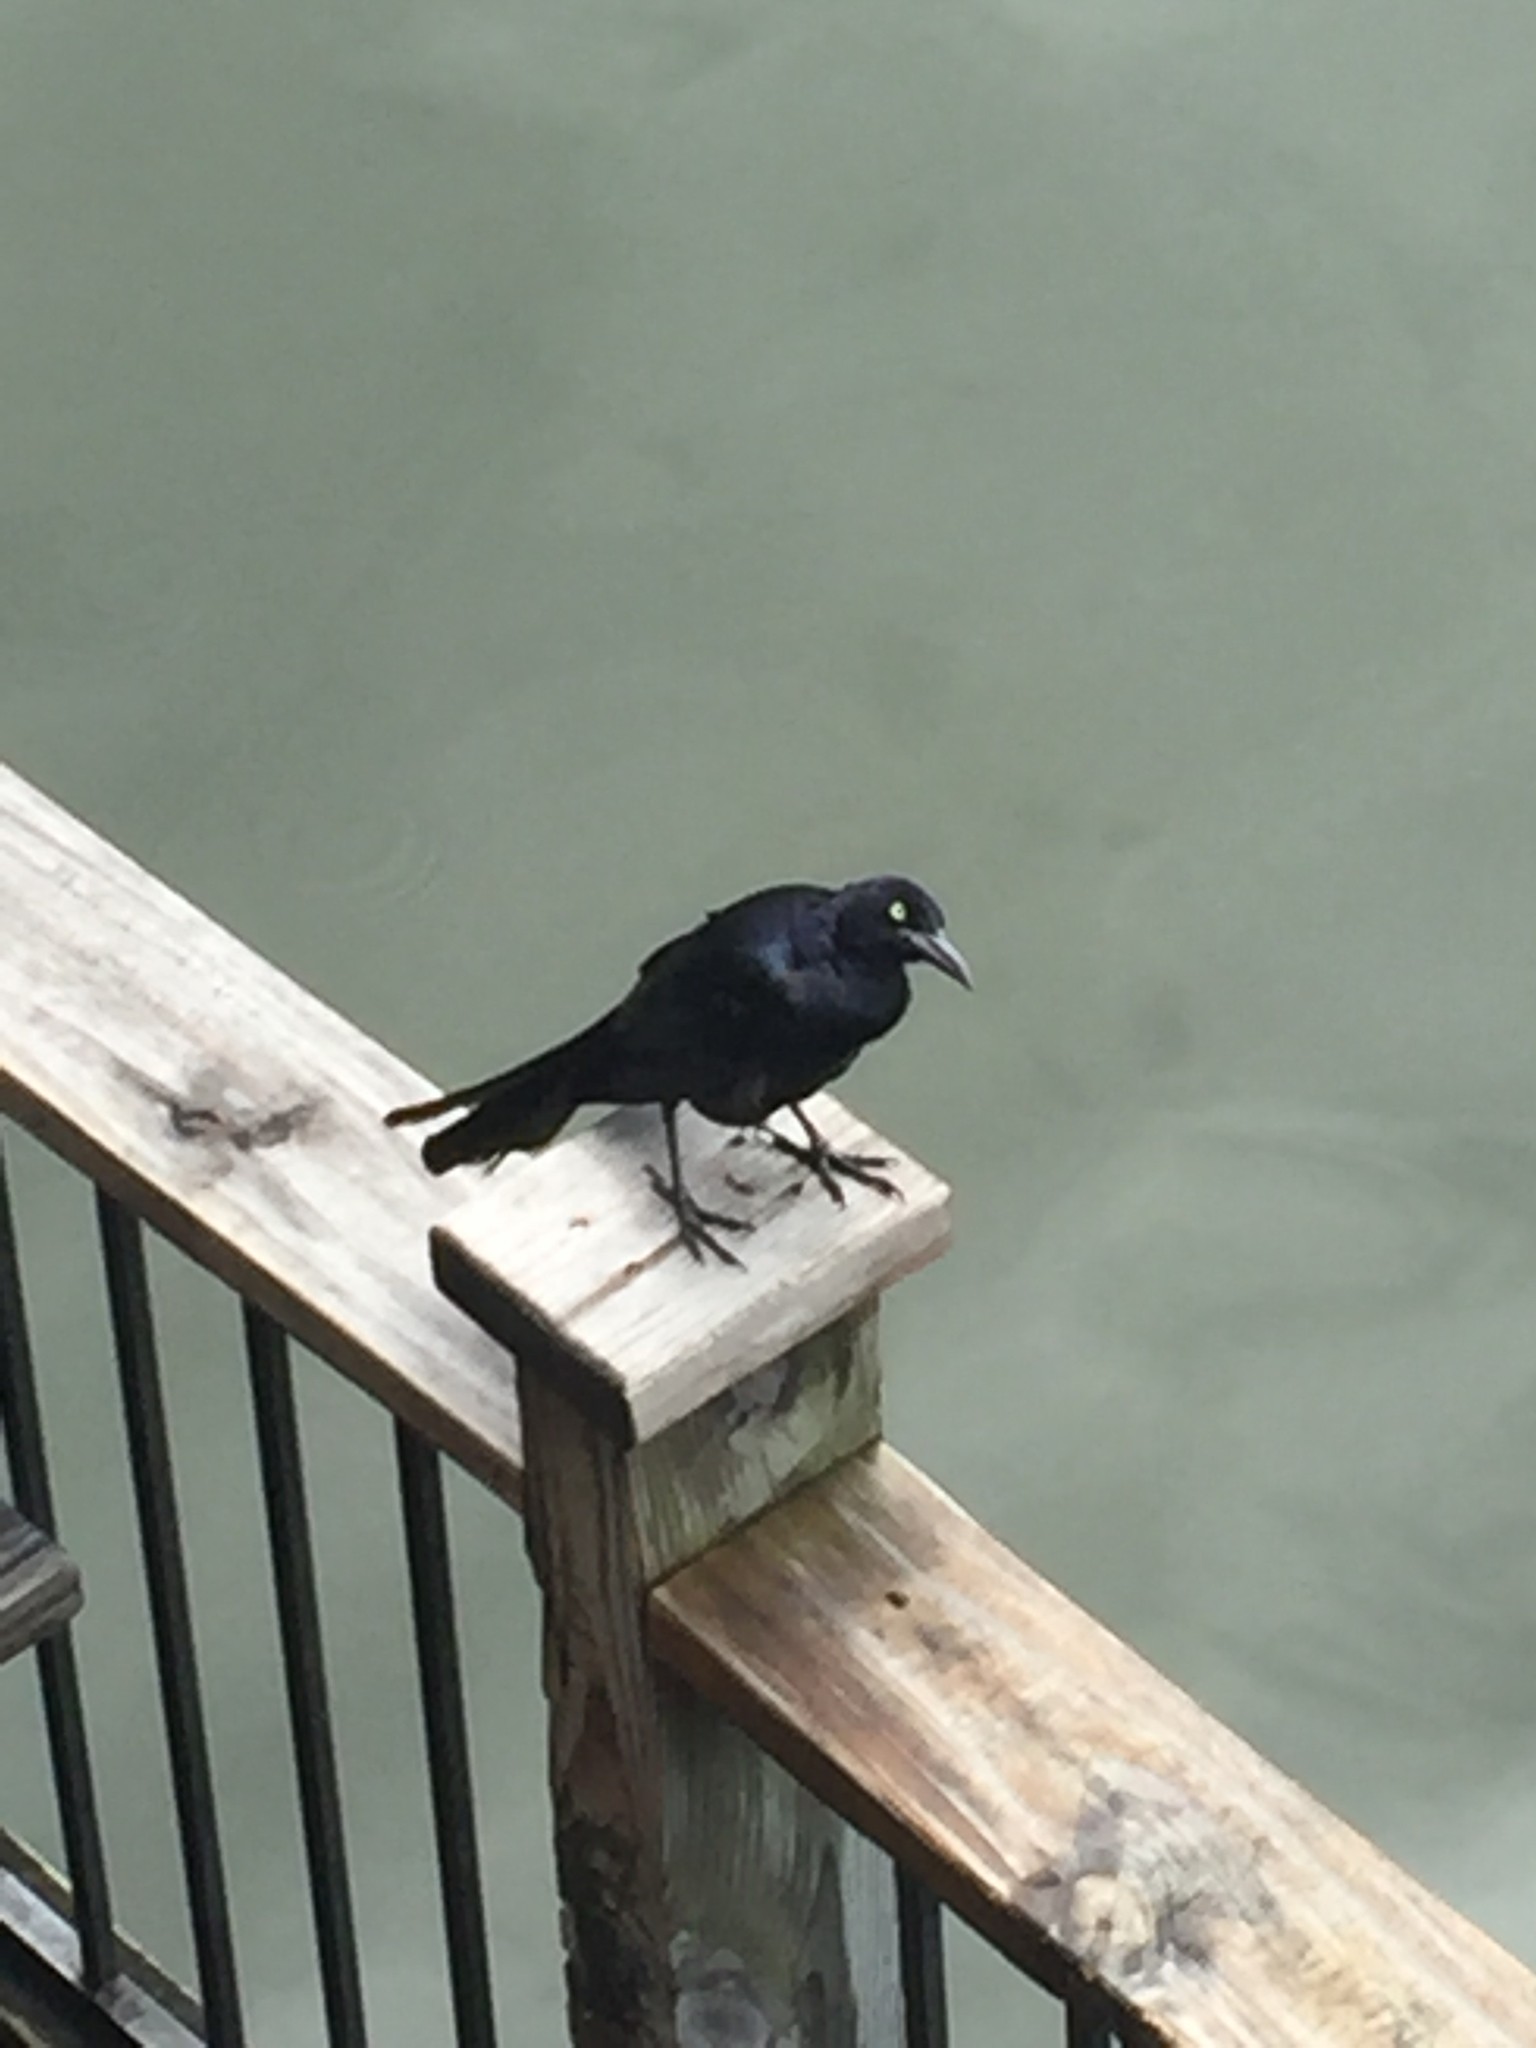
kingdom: Animalia
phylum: Chordata
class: Aves
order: Passeriformes
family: Icteridae
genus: Quiscalus
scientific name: Quiscalus mexicanus
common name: Great-tailed grackle
